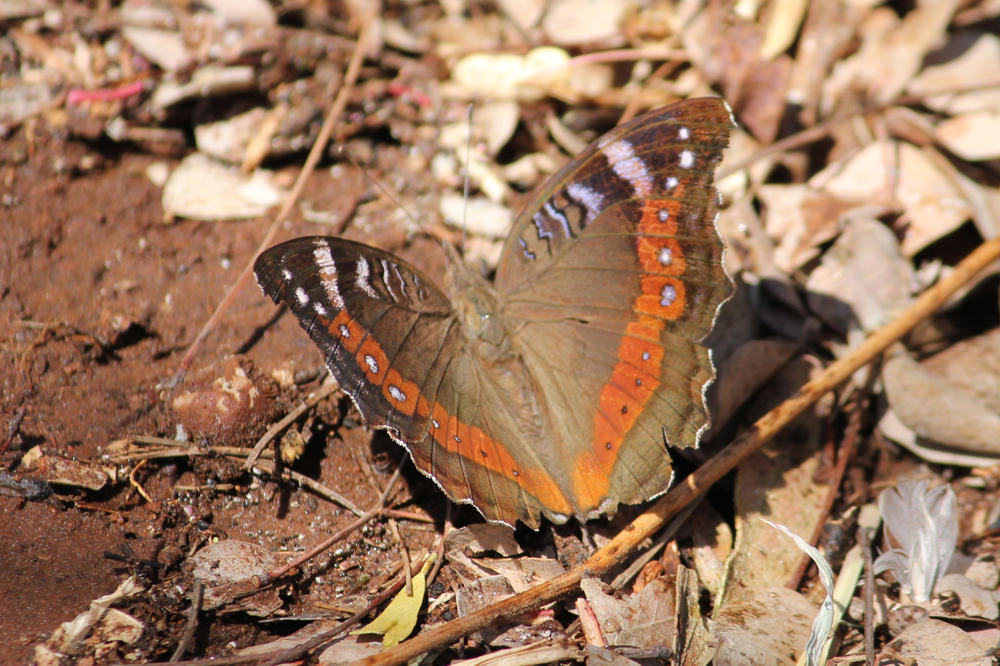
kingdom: Animalia
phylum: Arthropoda
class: Insecta
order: Lepidoptera
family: Nymphalidae
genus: Junonia
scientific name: Junonia archesia
